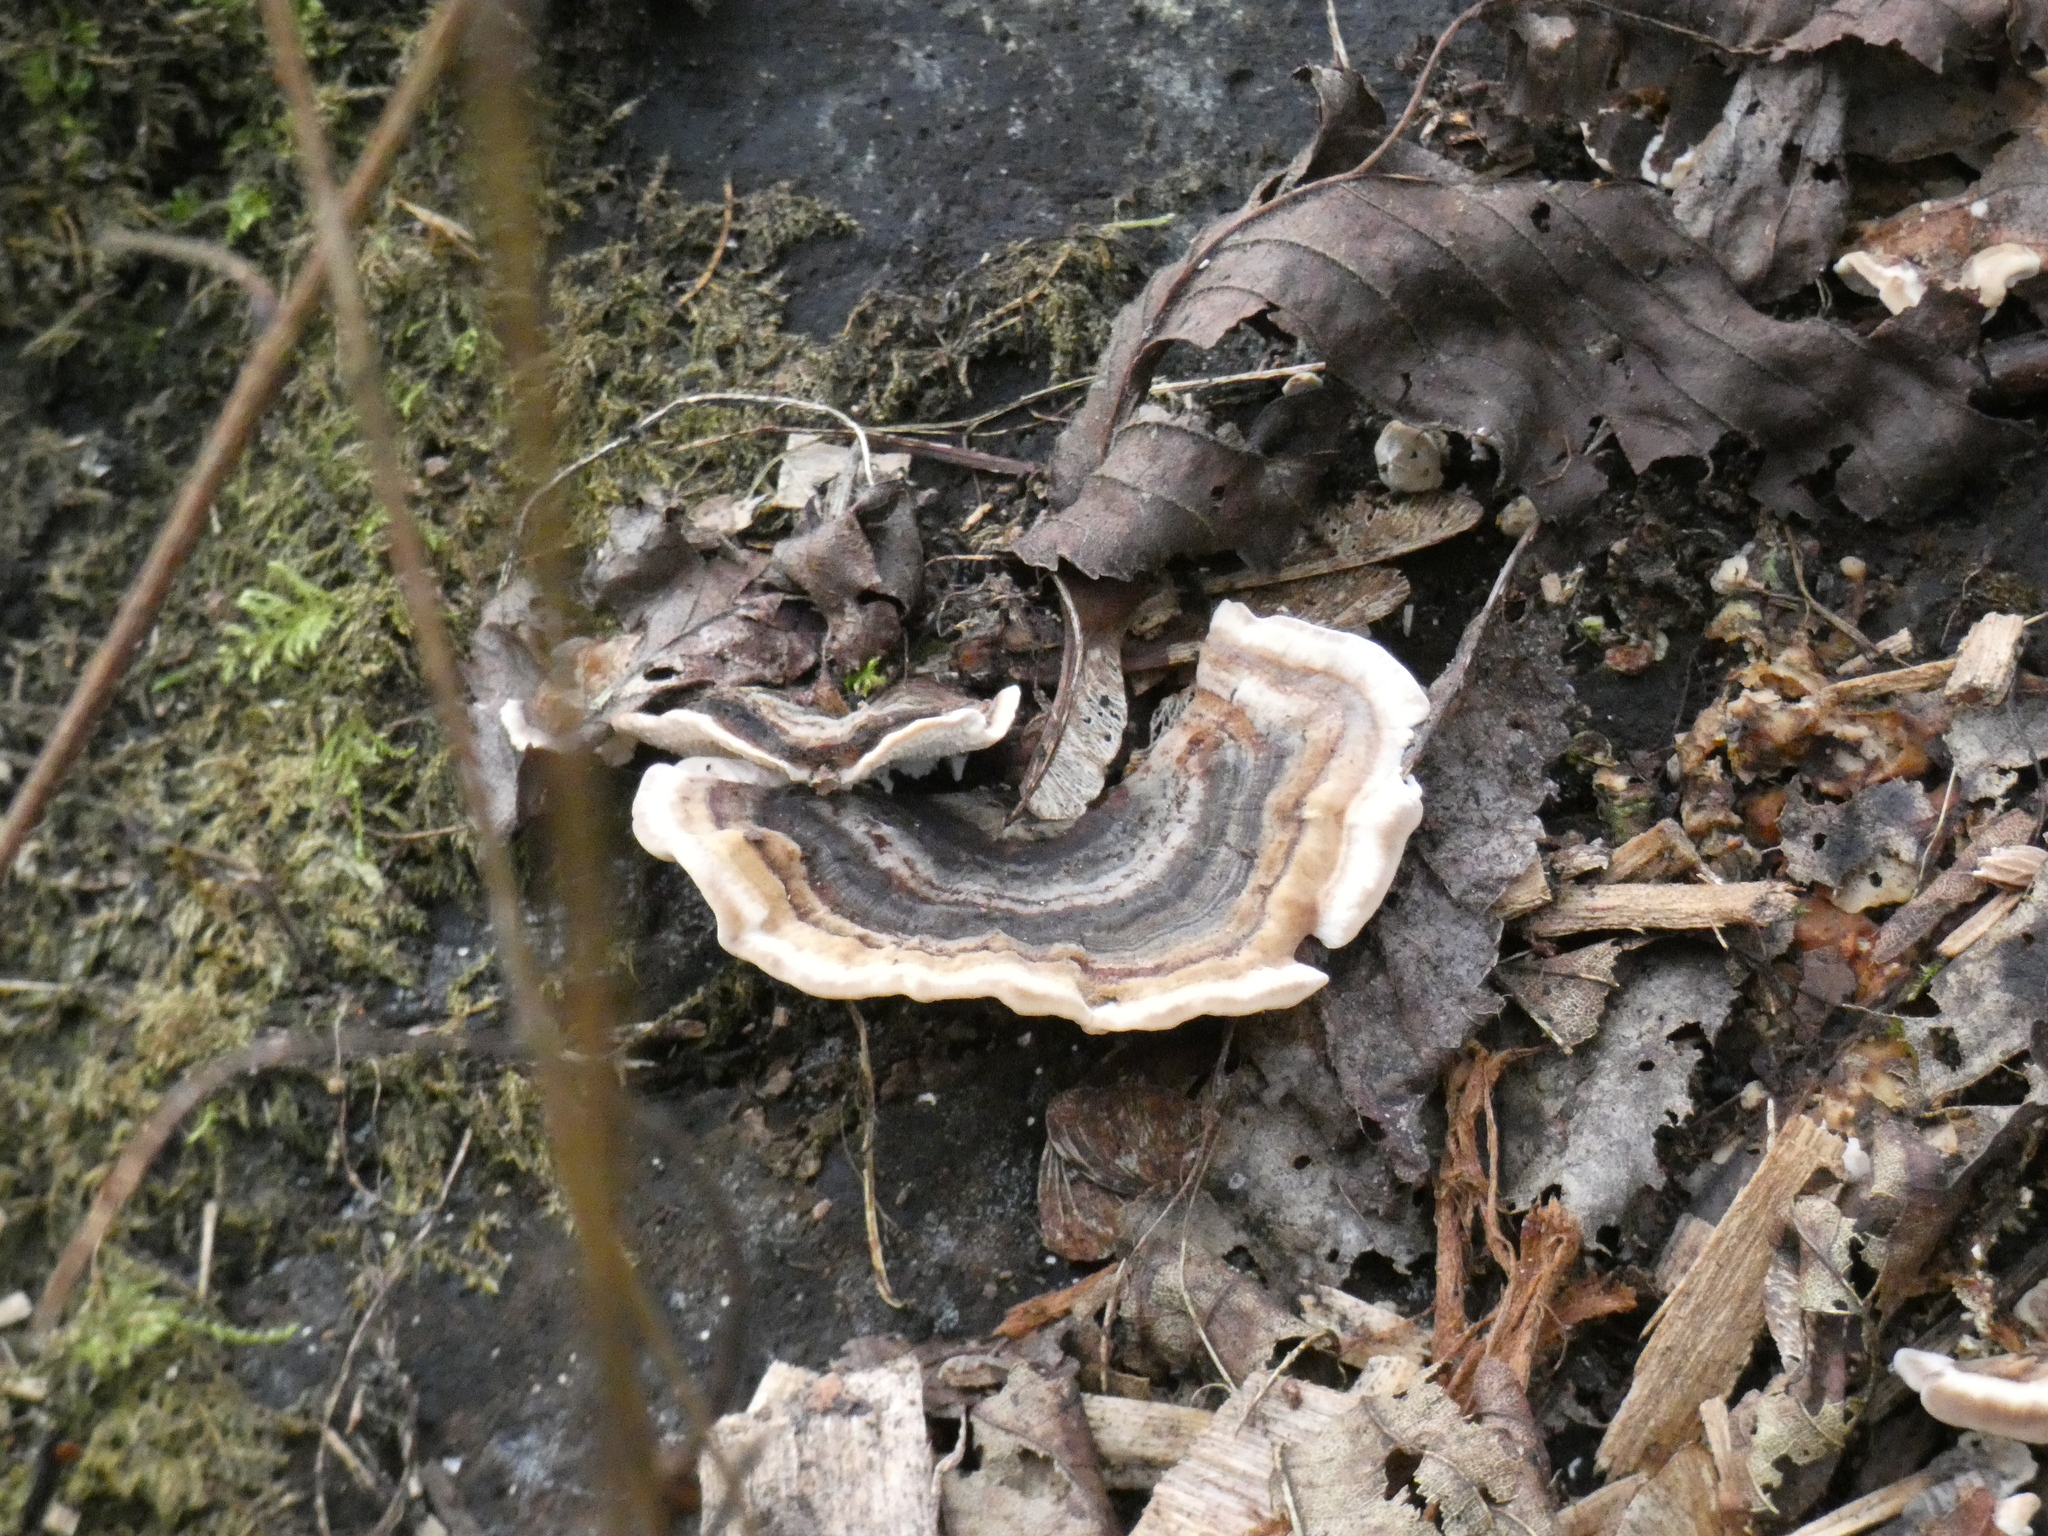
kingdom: Fungi
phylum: Basidiomycota
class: Agaricomycetes
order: Polyporales
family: Polyporaceae
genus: Trametes
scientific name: Trametes versicolor
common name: Turkeytail
